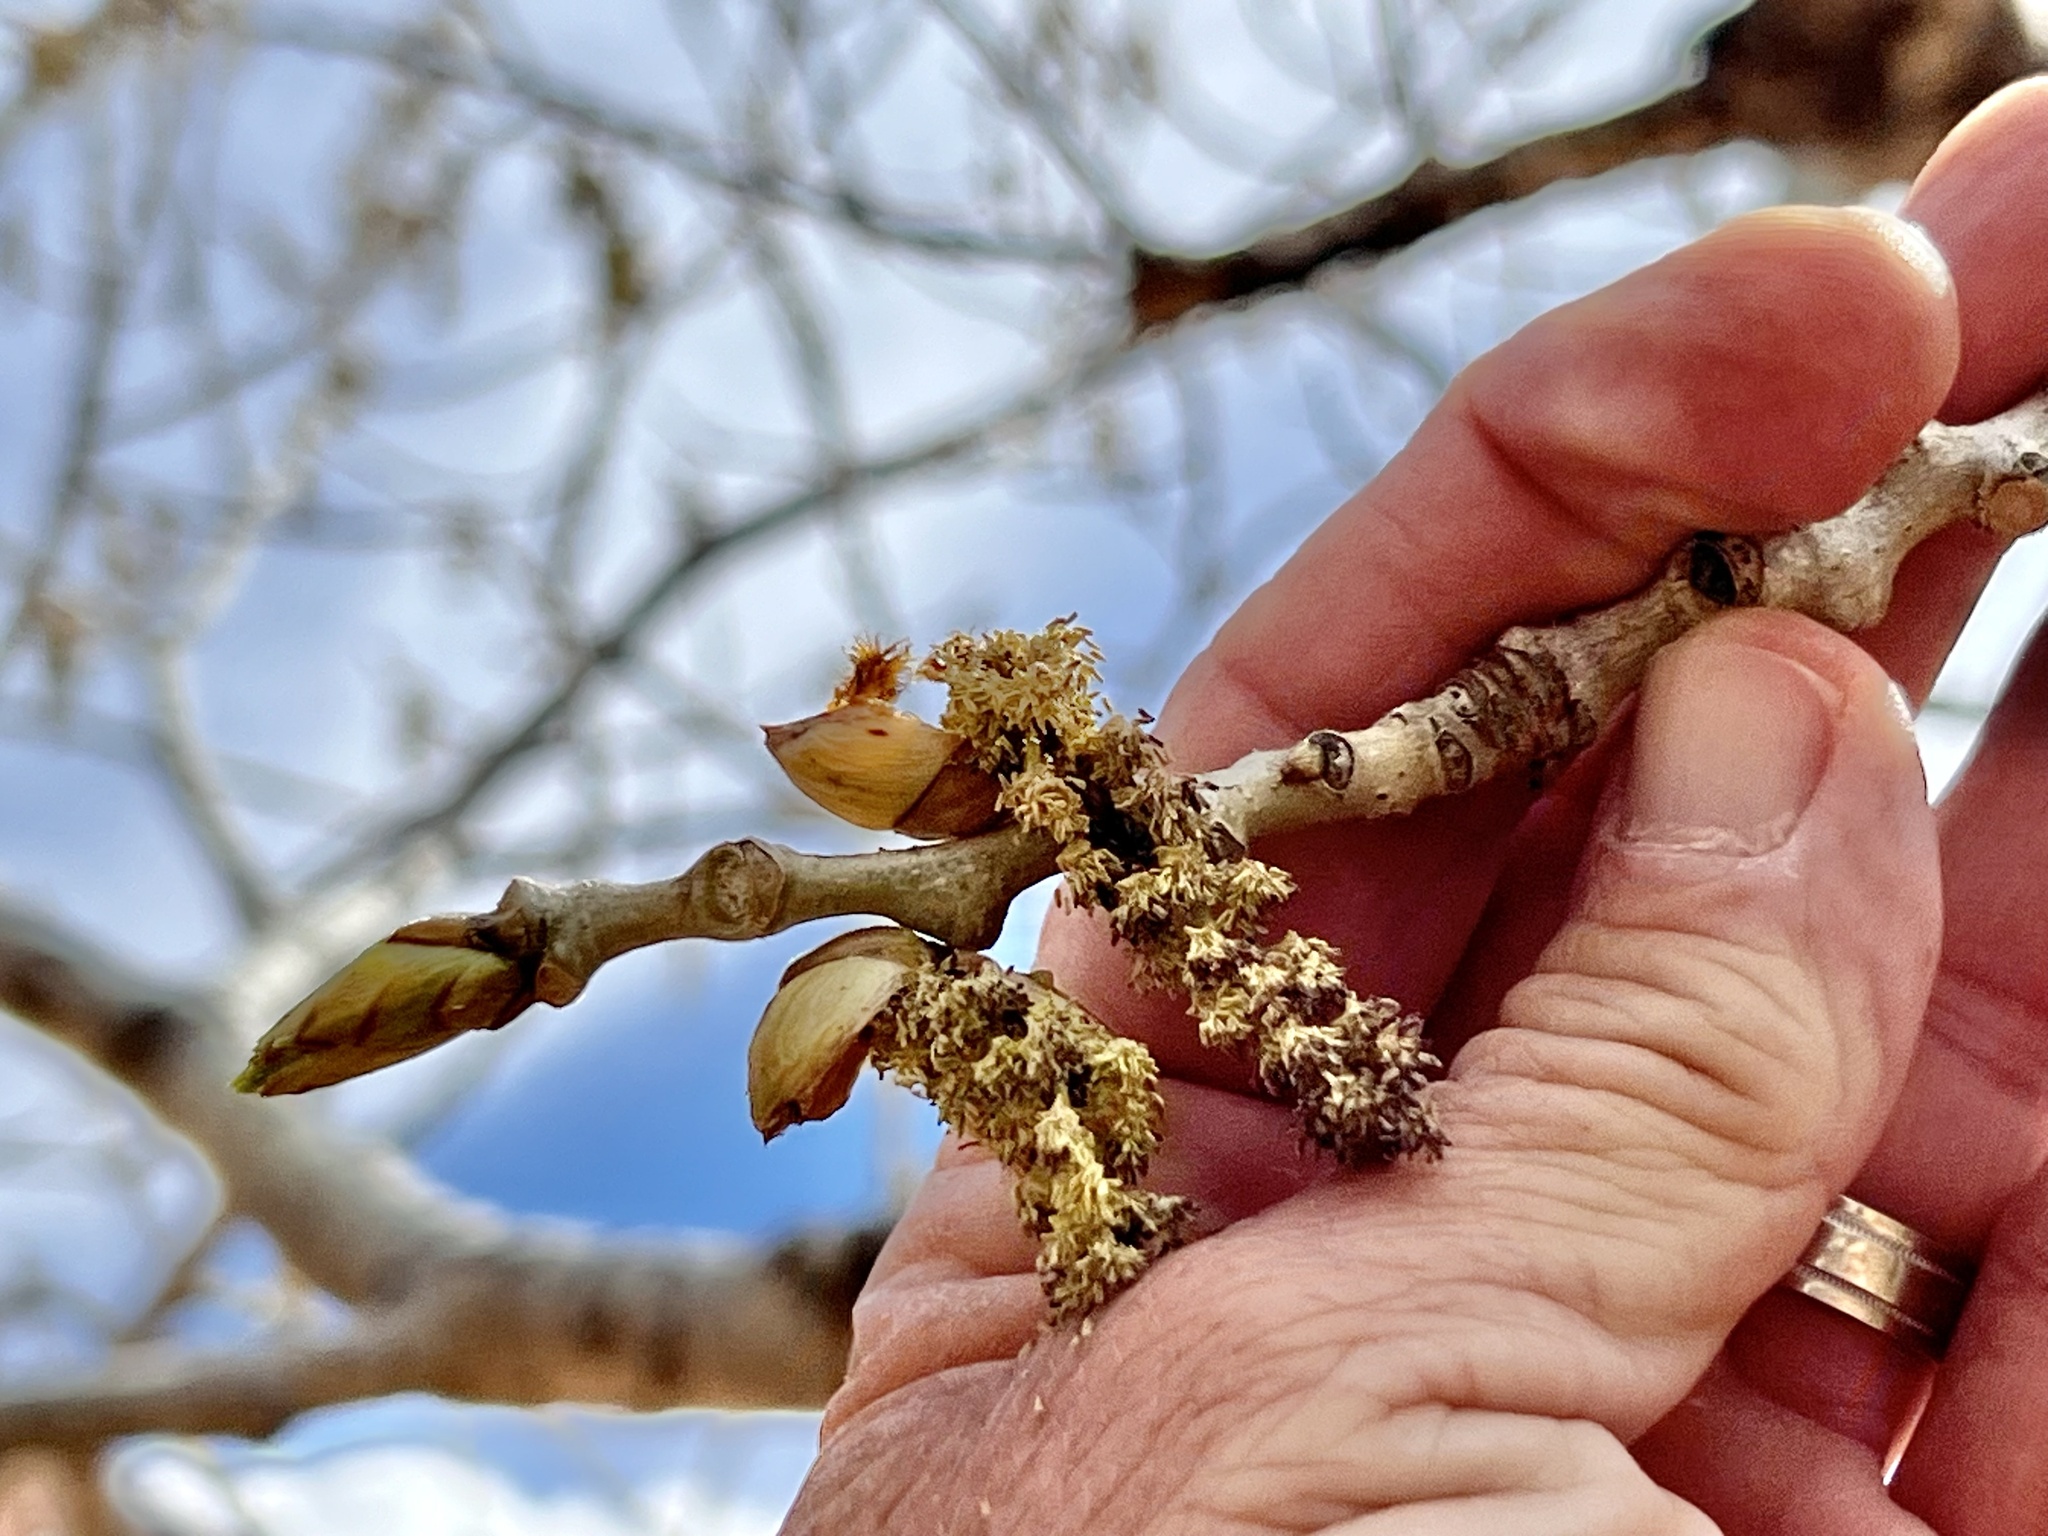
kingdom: Plantae
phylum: Tracheophyta
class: Magnoliopsida
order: Malpighiales
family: Salicaceae
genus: Populus
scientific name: Populus fremontii
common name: Fremont's cottonwood
